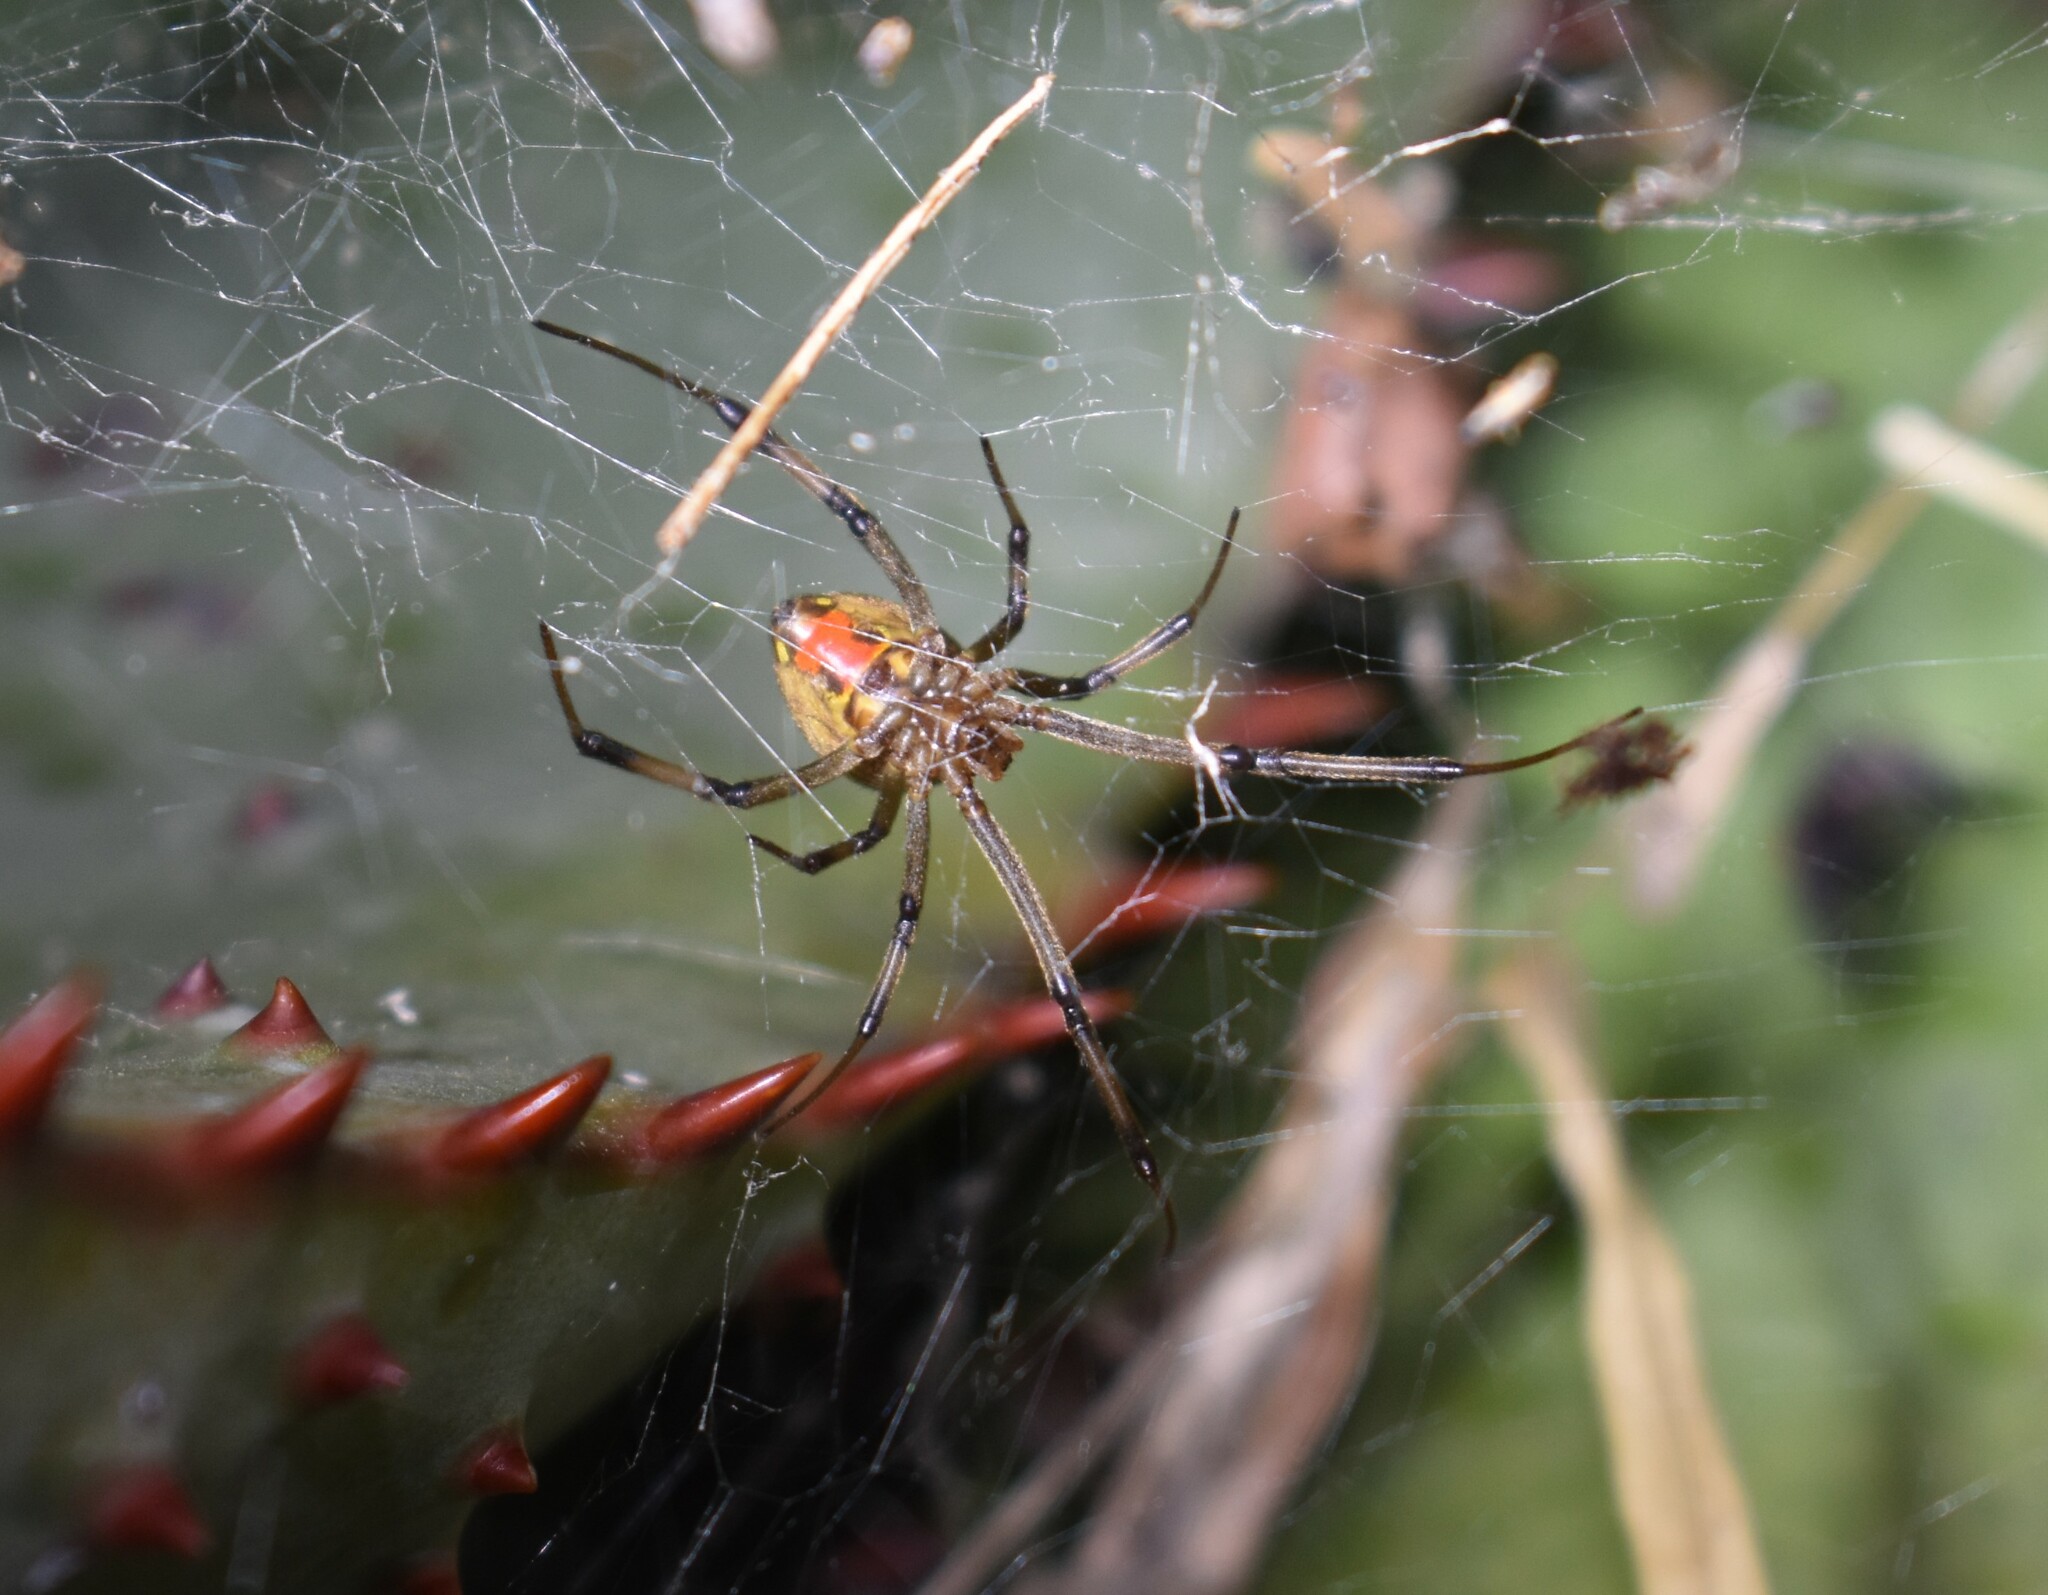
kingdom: Animalia
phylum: Arthropoda
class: Arachnida
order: Araneae
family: Theridiidae
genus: Latrodectus
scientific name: Latrodectus geometricus
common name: Brown widow spider
